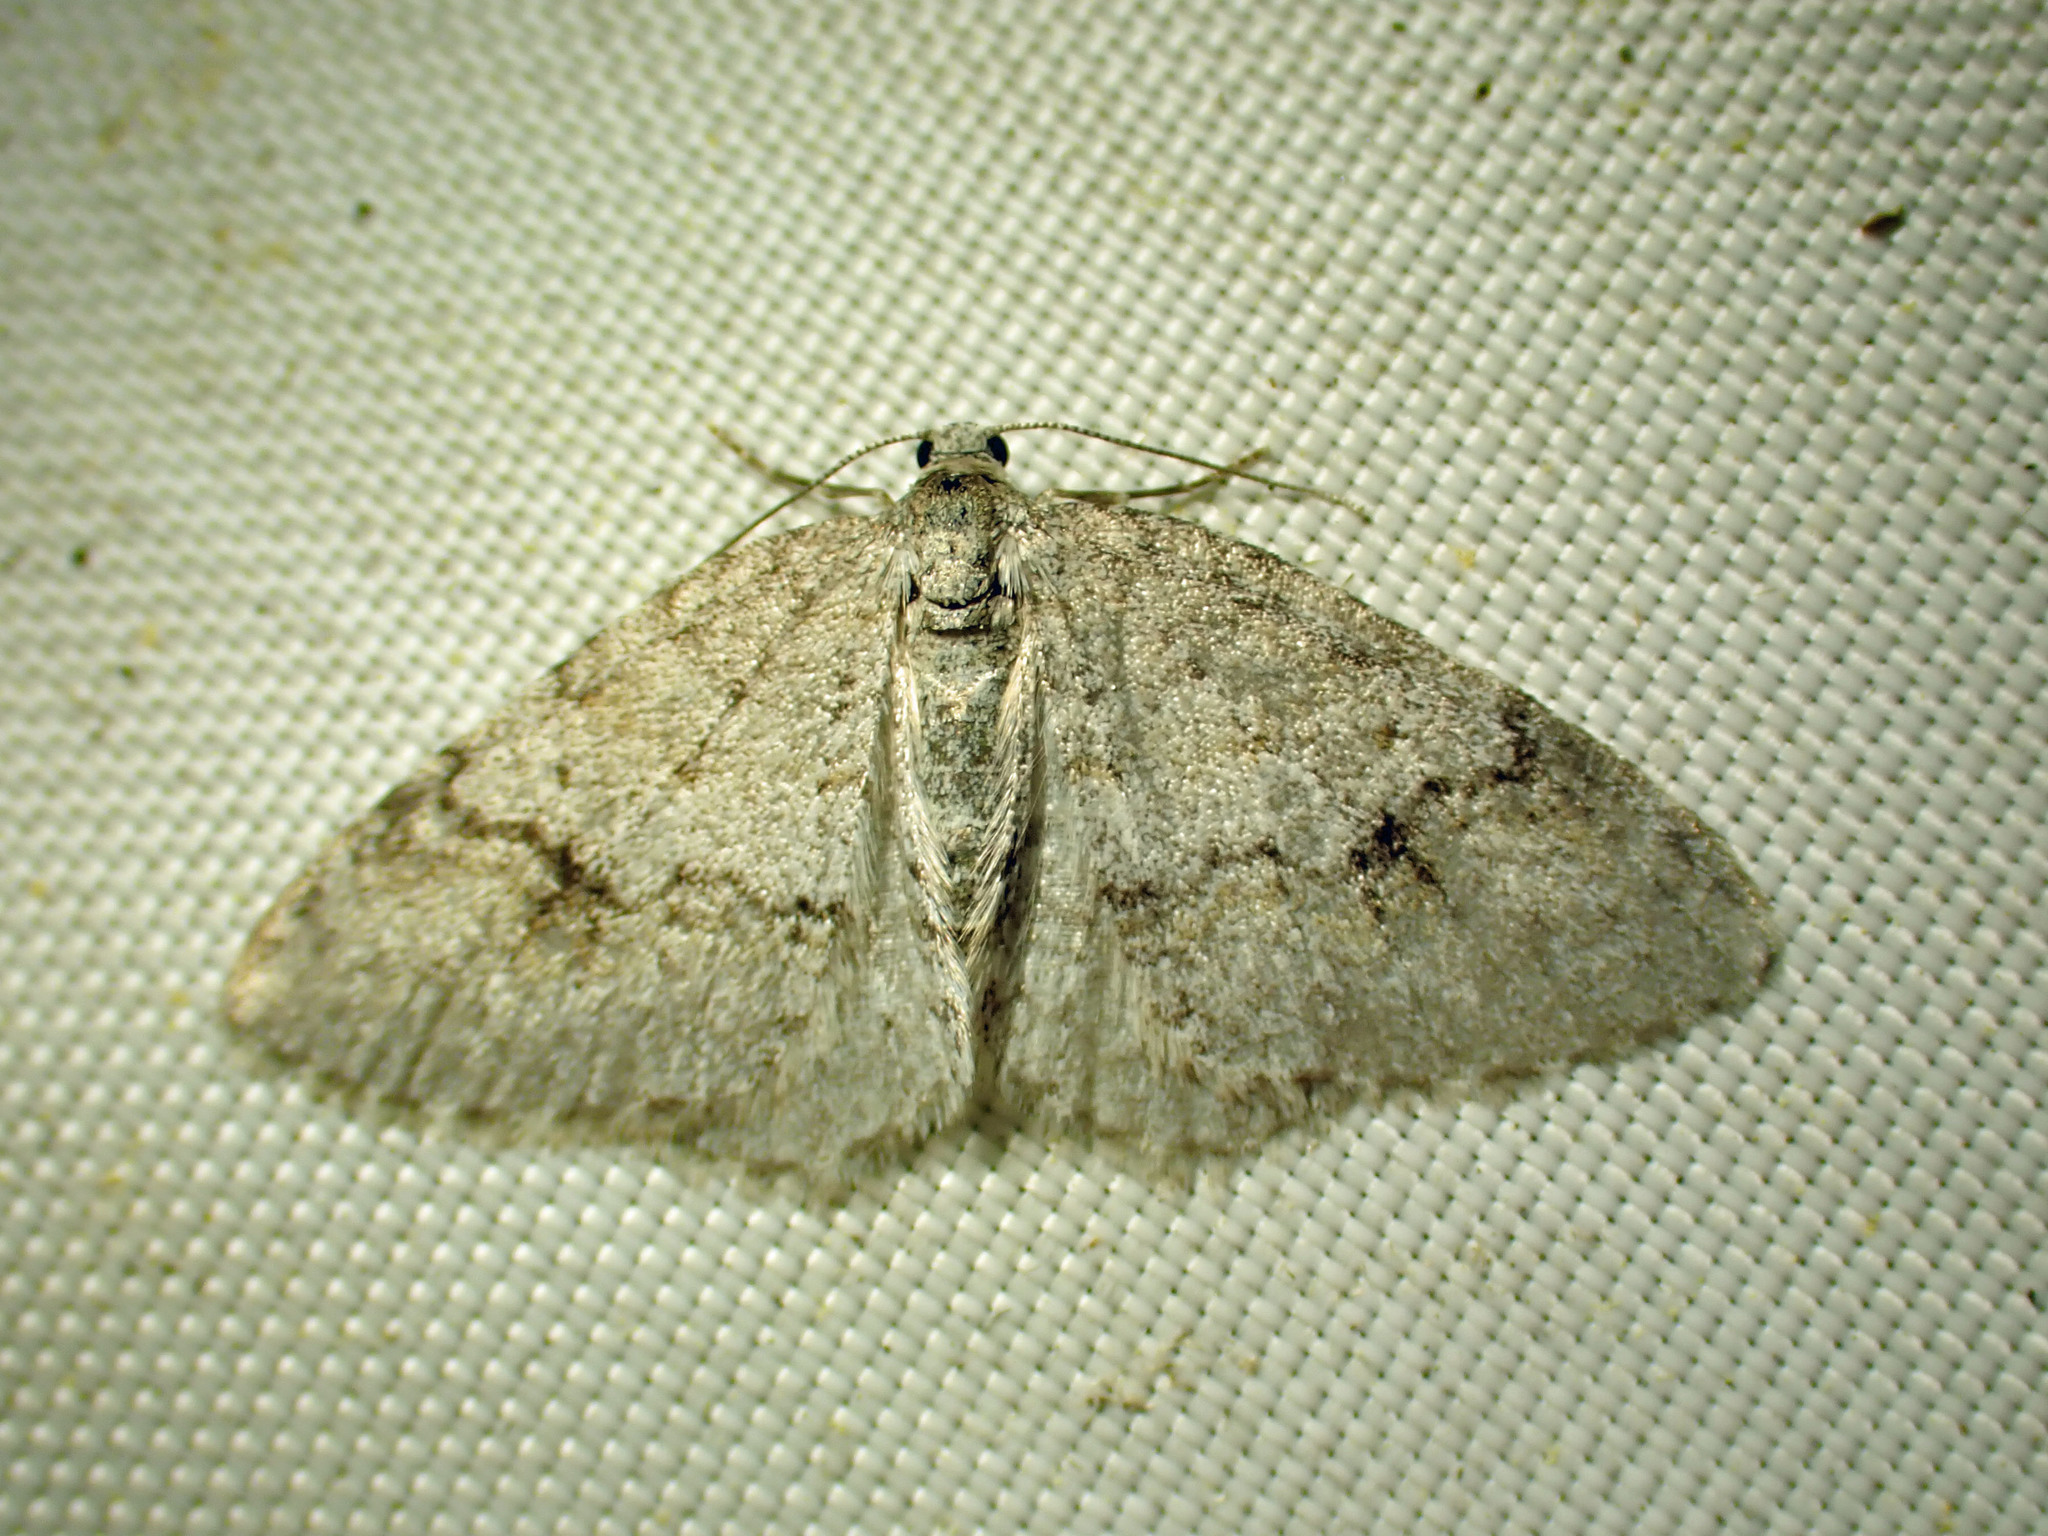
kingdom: Animalia
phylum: Arthropoda
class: Insecta
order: Lepidoptera
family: Geometridae
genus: Venusia
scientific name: Venusia comptaria
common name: Brown-shaded carpet
